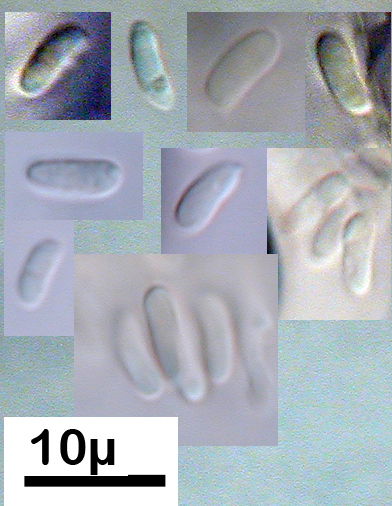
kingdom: Fungi
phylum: Basidiomycota
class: Agaricomycetes
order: Hymenochaetales
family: Hymenochaetaceae
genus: Tubulicrinis
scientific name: Tubulicrinis glebulosus
